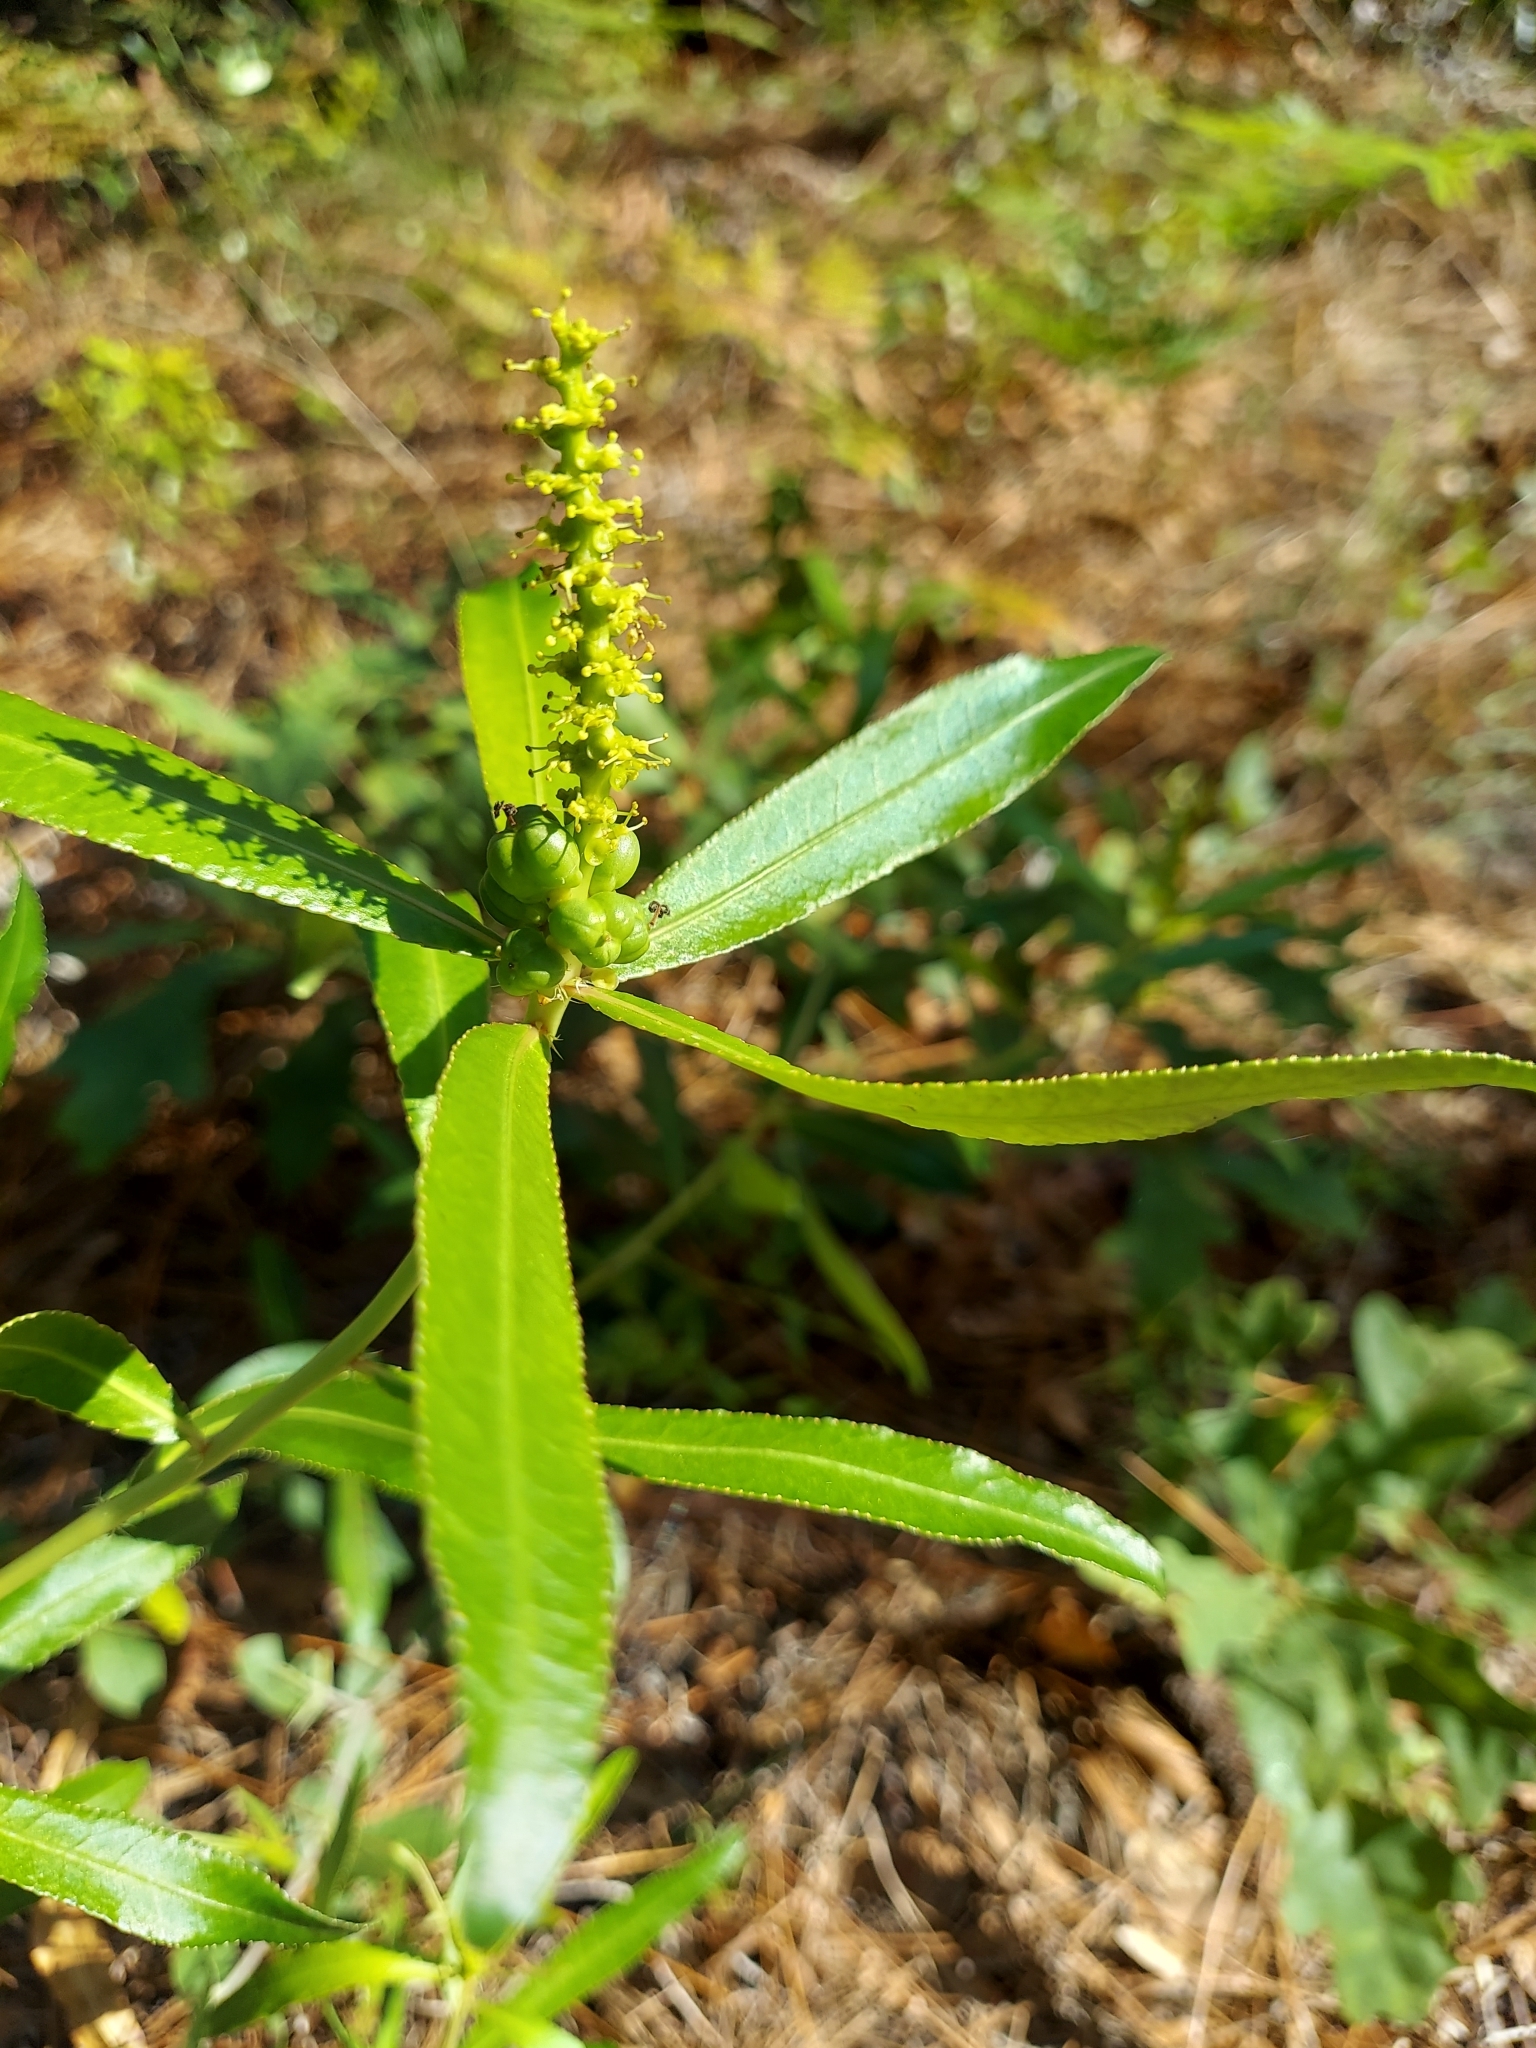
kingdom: Plantae
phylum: Tracheophyta
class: Magnoliopsida
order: Malpighiales
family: Euphorbiaceae
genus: Stillingia
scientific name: Stillingia sylvatica
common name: Queen's-delight
